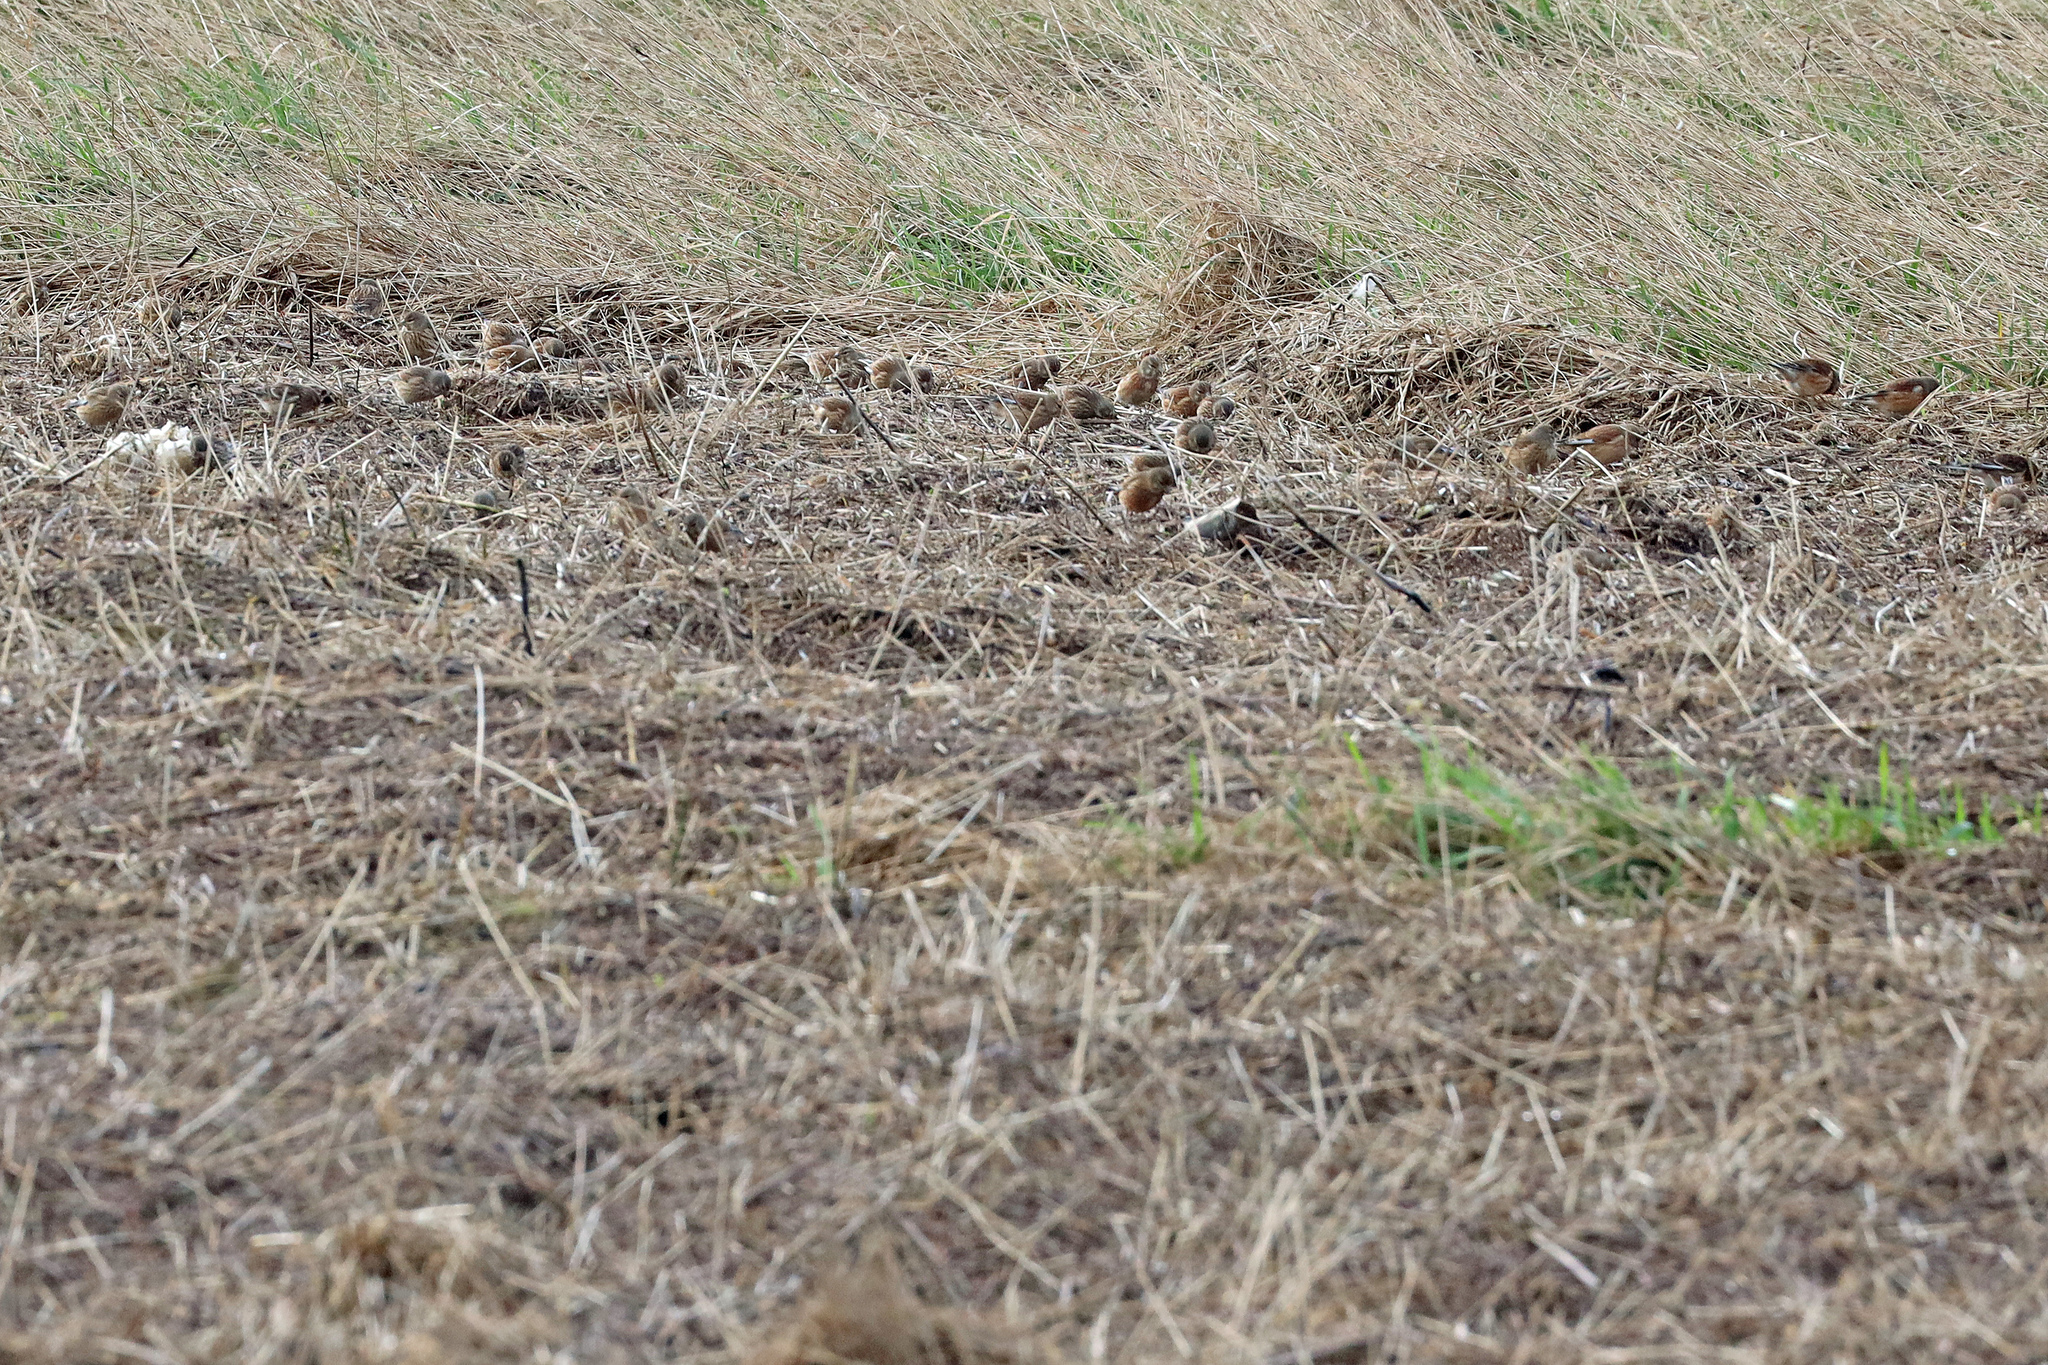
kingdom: Animalia
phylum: Chordata
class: Aves
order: Passeriformes
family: Fringillidae
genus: Linaria
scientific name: Linaria cannabina
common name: Common linnet
